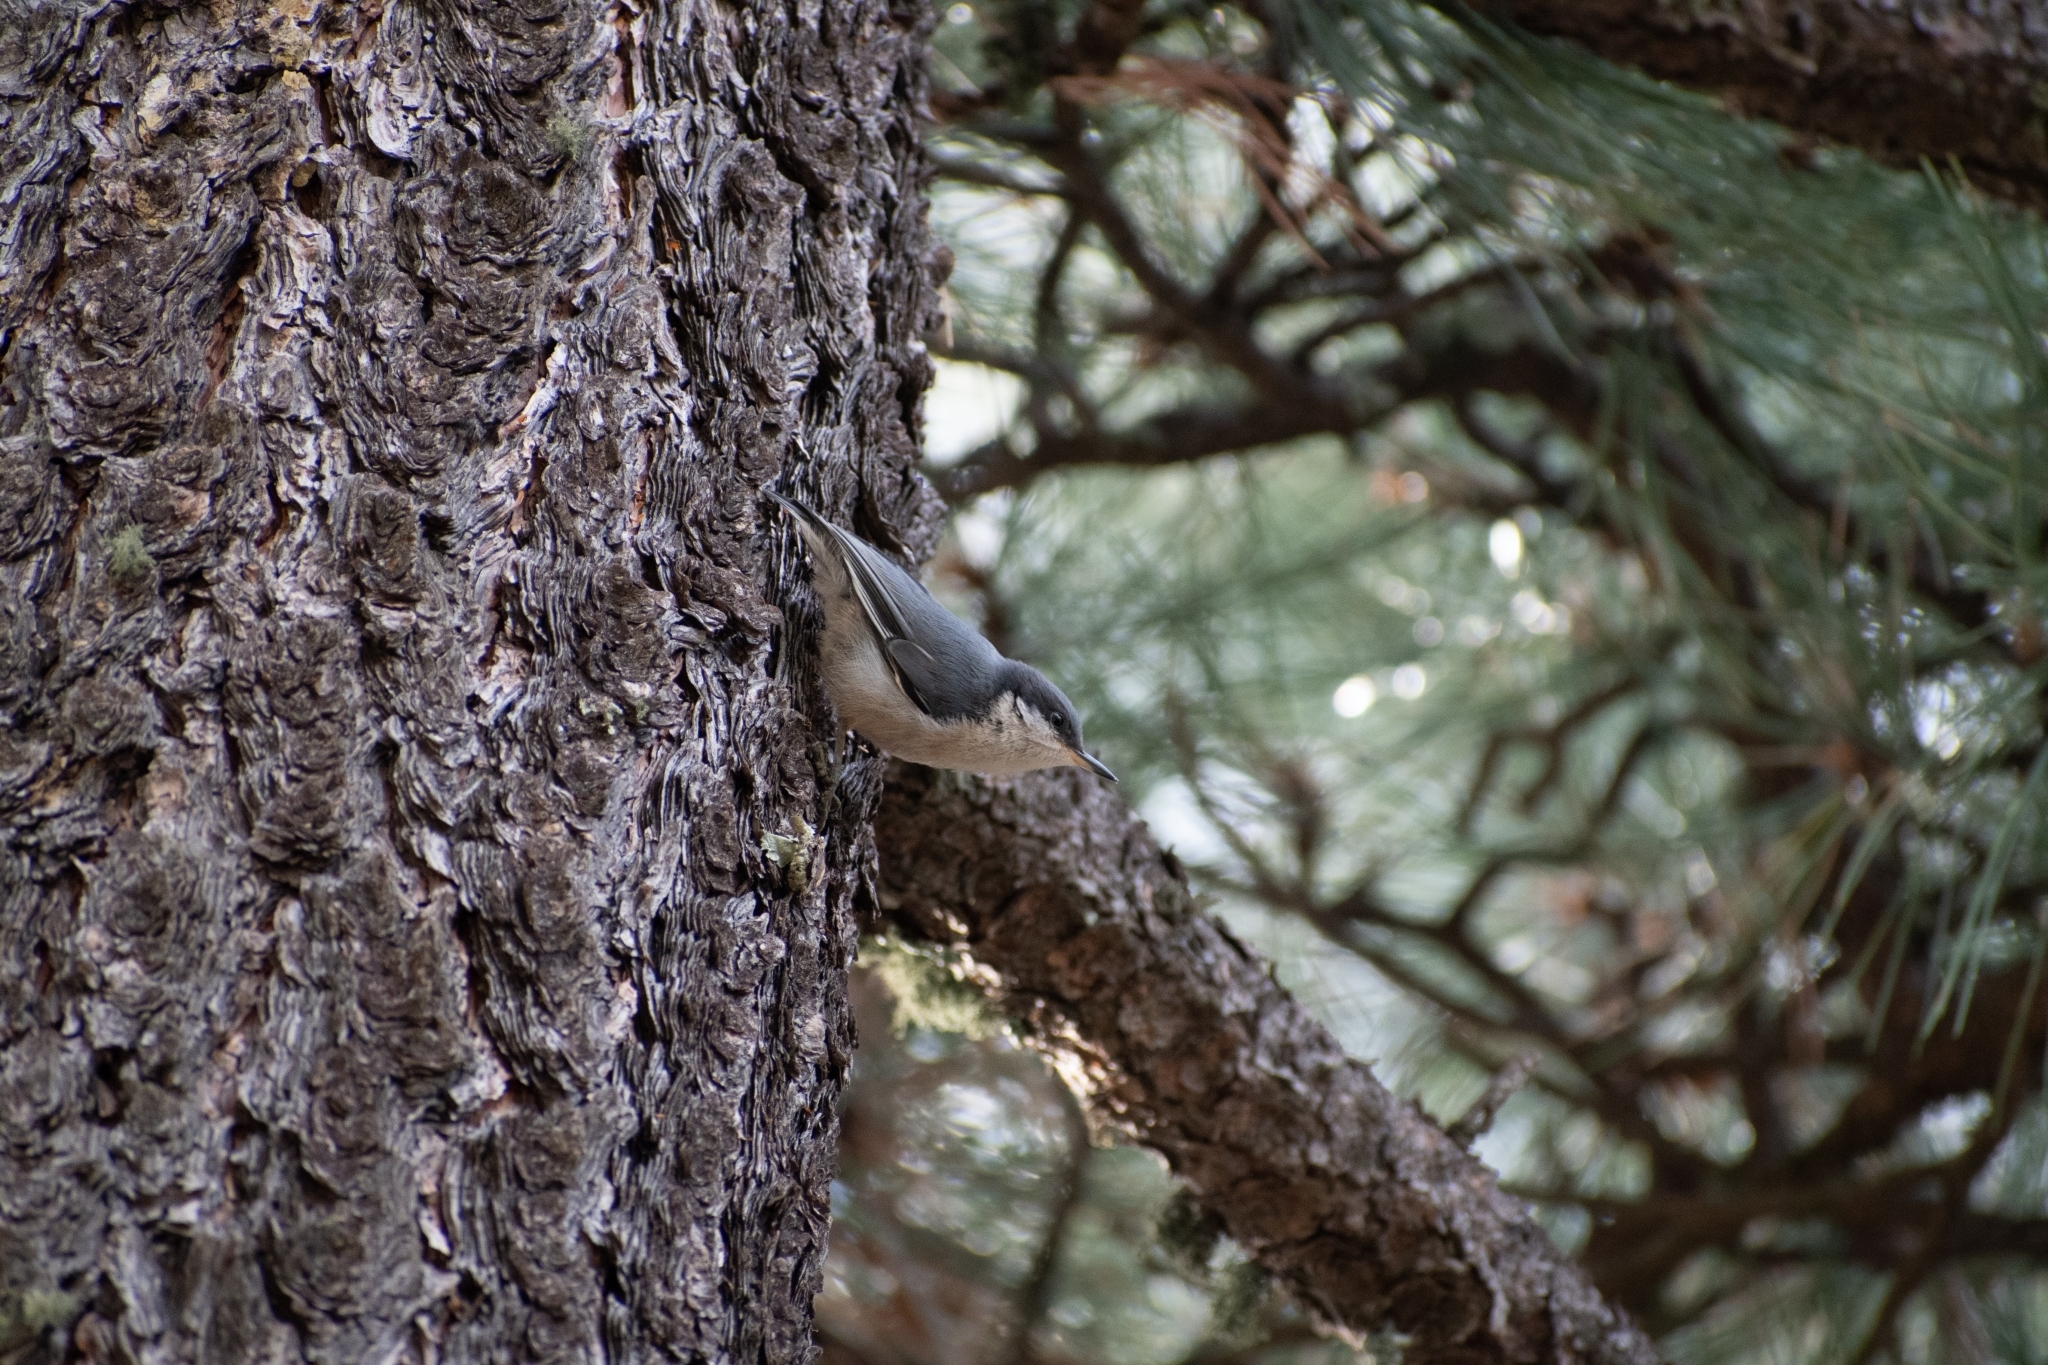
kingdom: Animalia
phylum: Chordata
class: Aves
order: Passeriformes
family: Sittidae
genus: Sitta
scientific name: Sitta pygmaea
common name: Pygmy nuthatch
